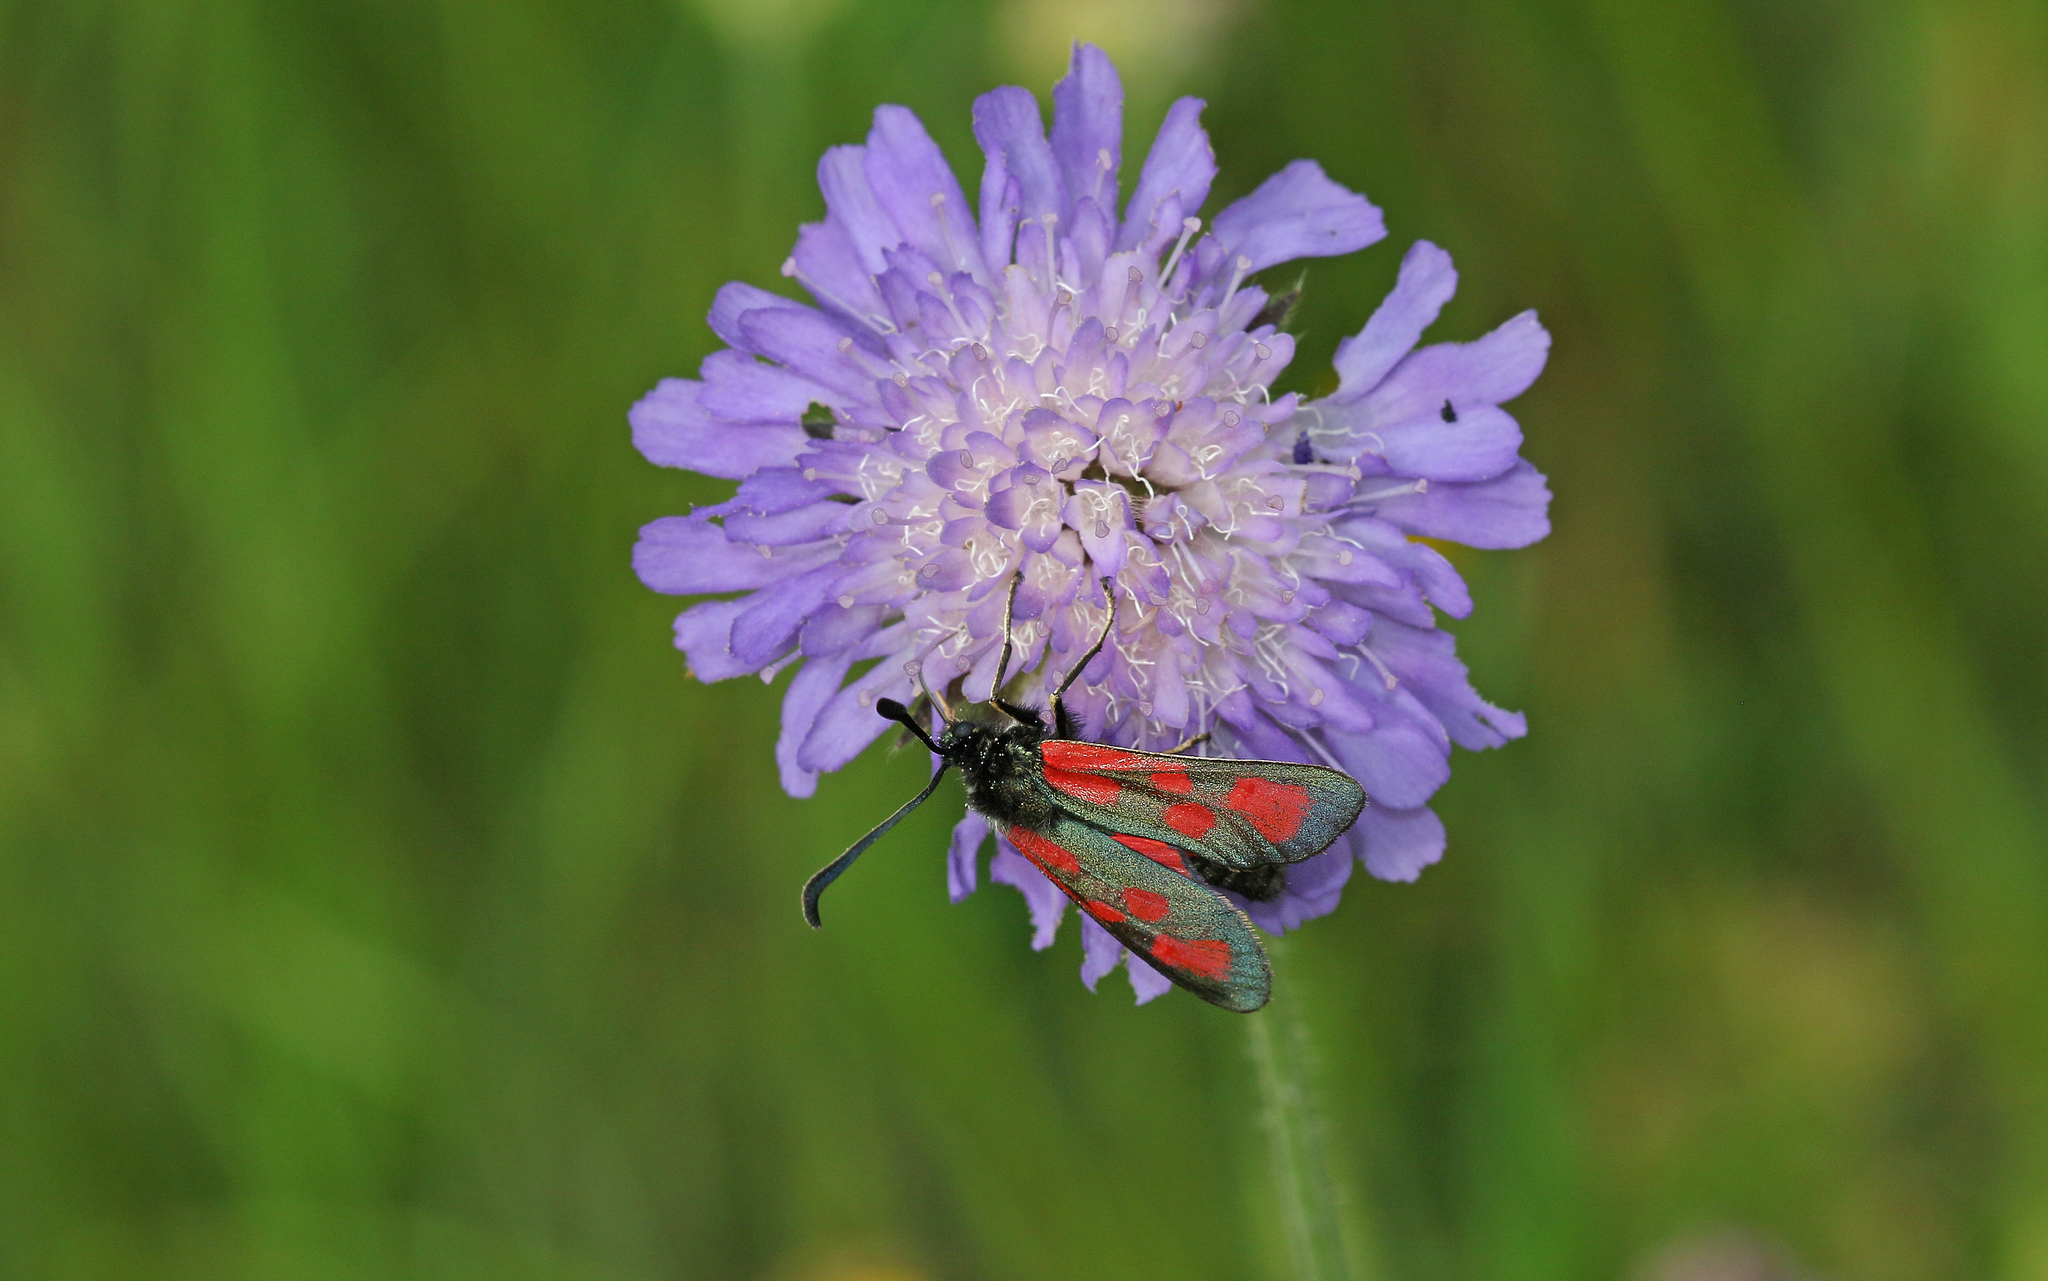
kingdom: Animalia
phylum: Arthropoda
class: Insecta
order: Lepidoptera
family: Zygaenidae
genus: Zygaena
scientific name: Zygaena loti
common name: Slender scotch burnet
